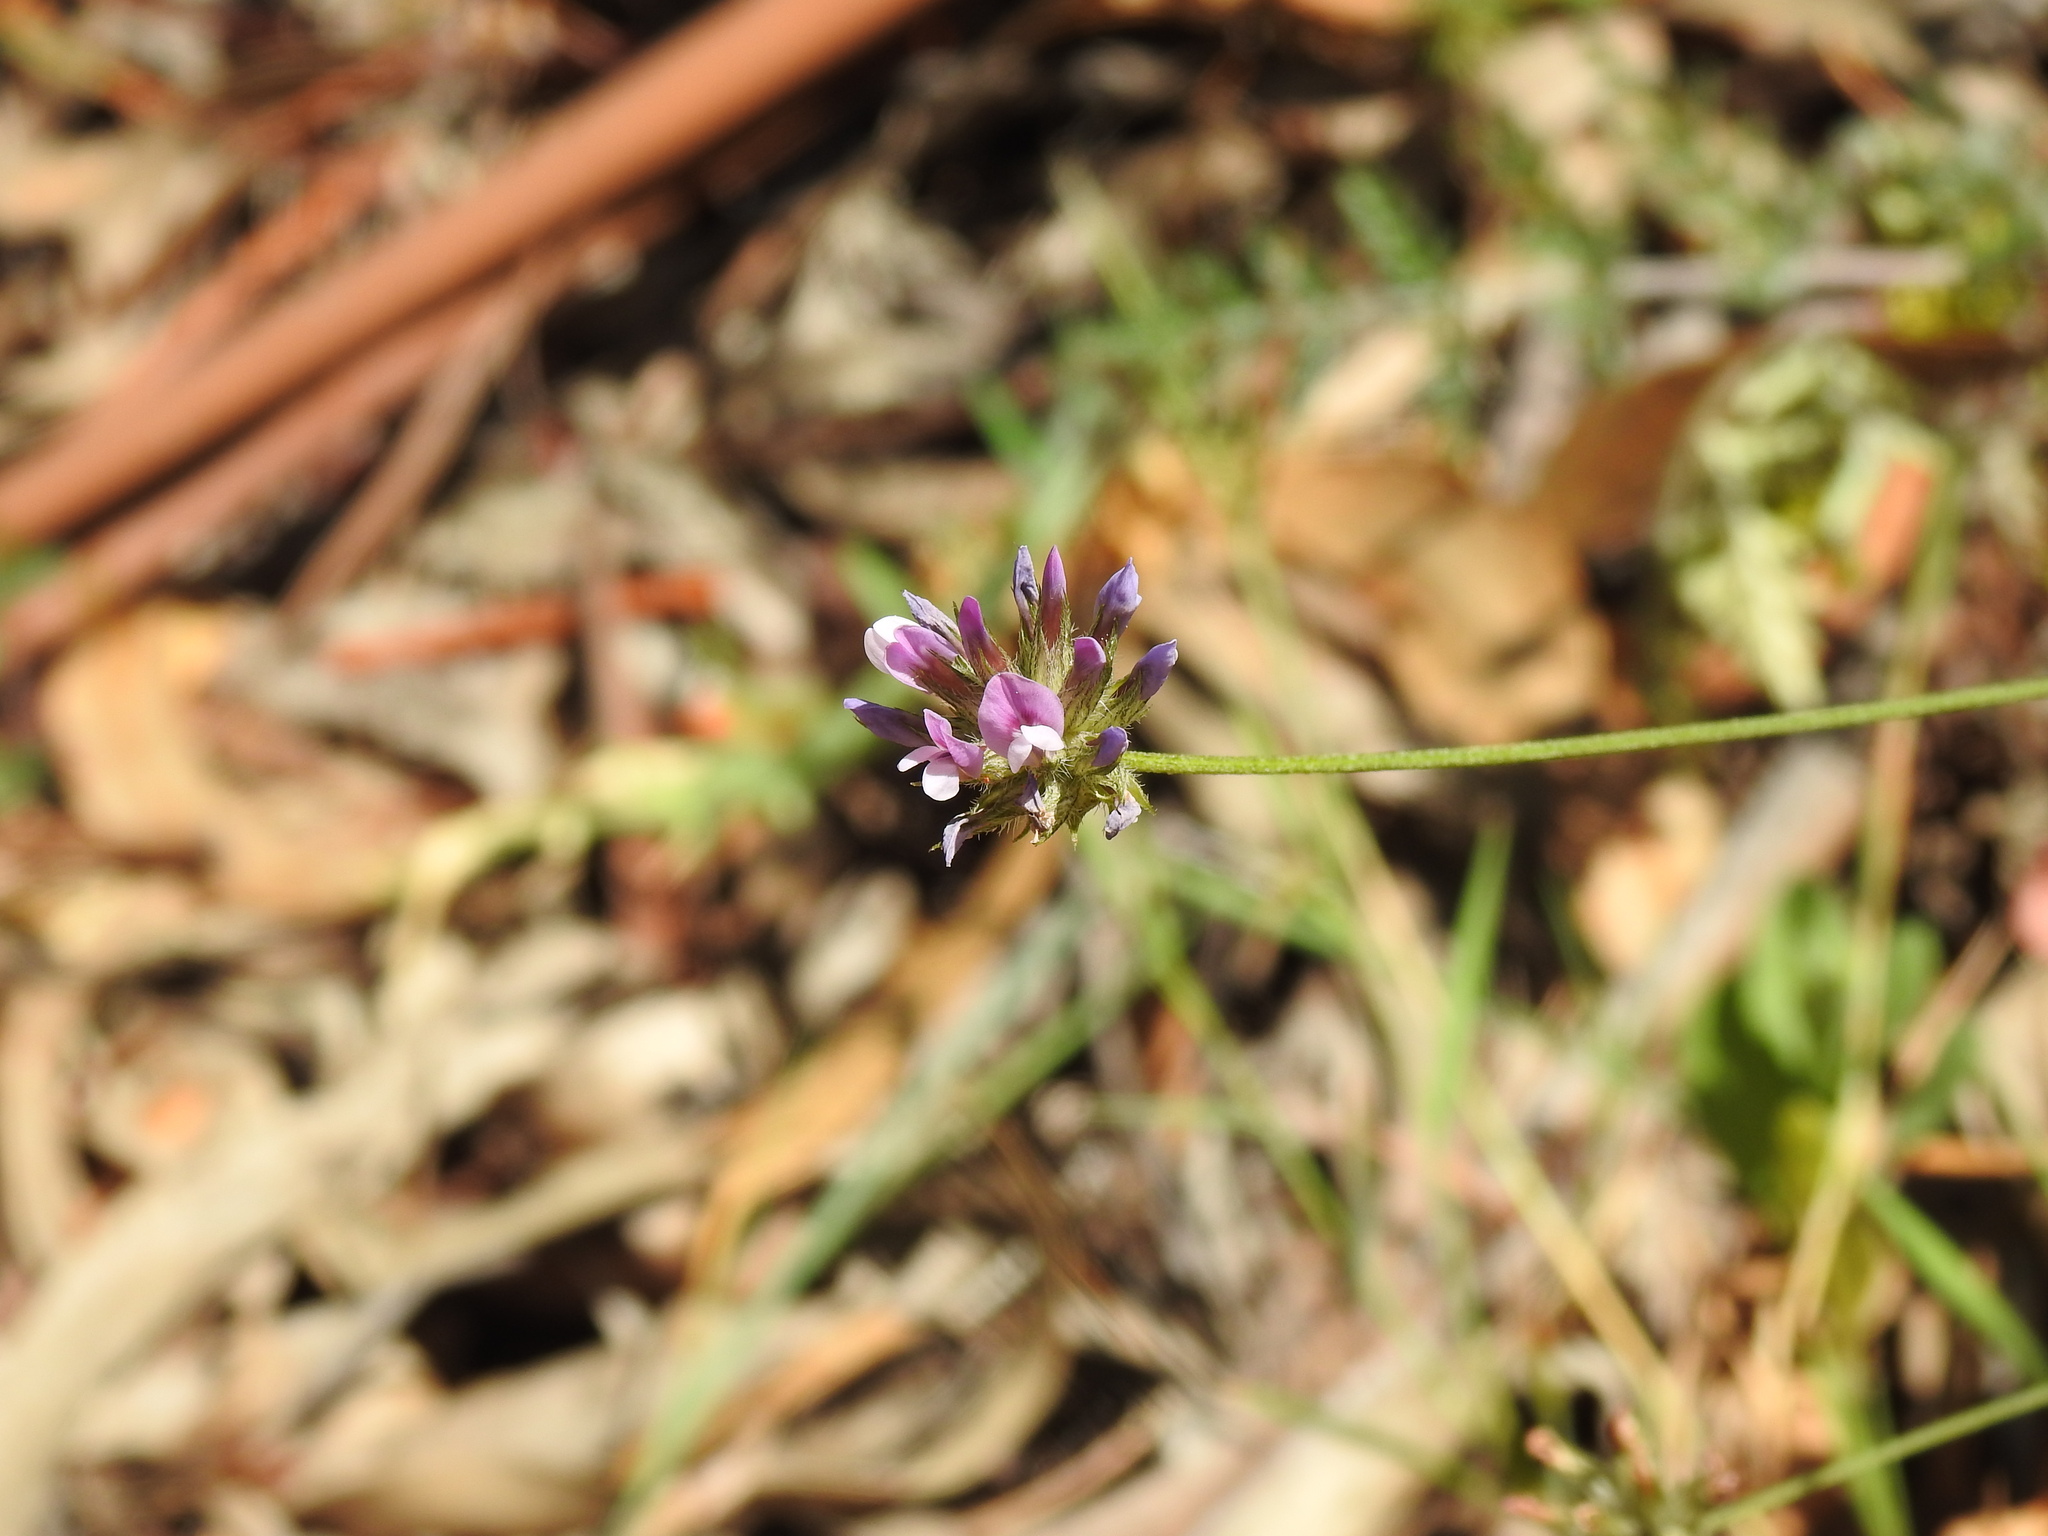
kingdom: Plantae
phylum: Tracheophyta
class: Magnoliopsida
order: Fabales
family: Fabaceae
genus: Bituminaria
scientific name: Bituminaria bituminosa
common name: Arabian pea
